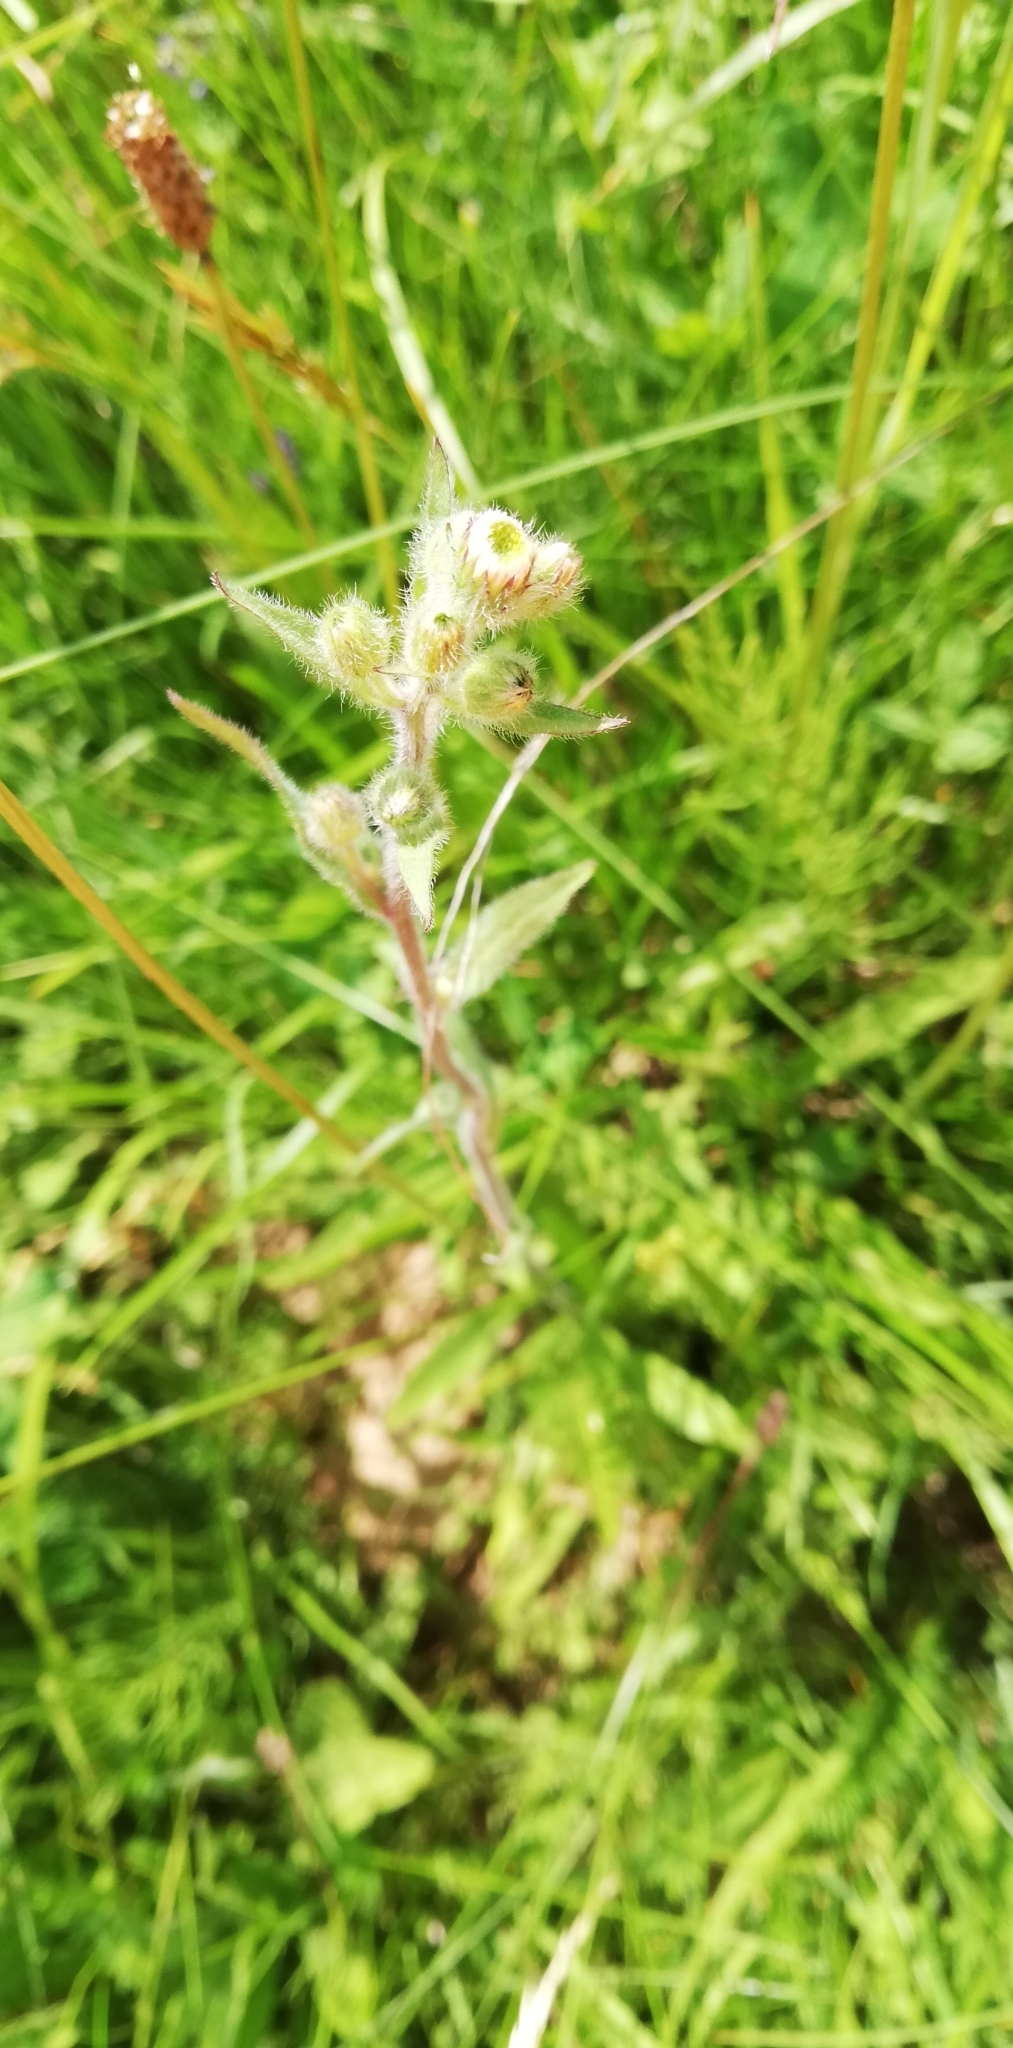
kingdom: Plantae
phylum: Tracheophyta
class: Magnoliopsida
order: Asterales
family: Asteraceae
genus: Erigeron
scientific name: Erigeron acris
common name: Blue fleabane
